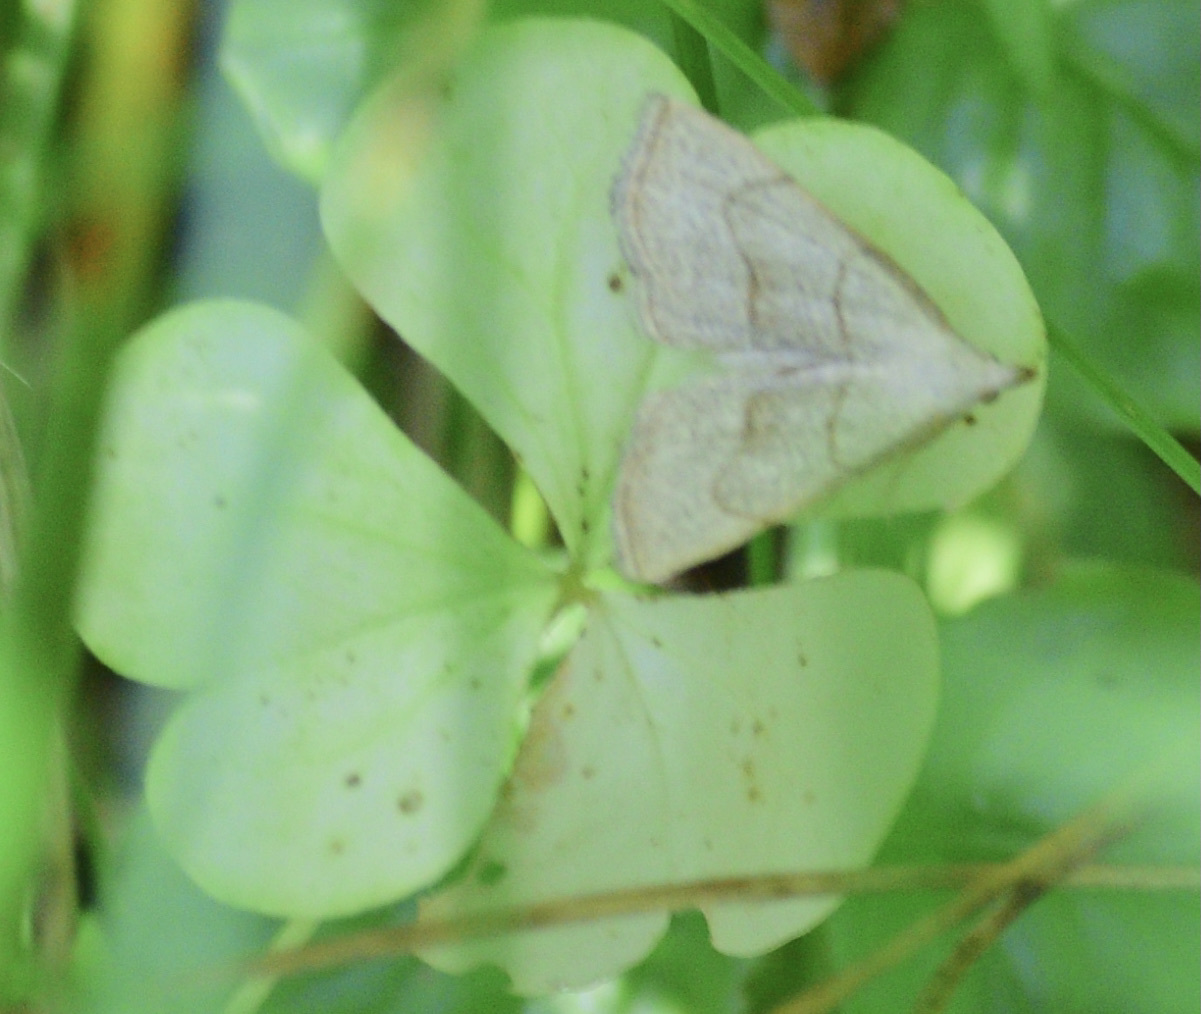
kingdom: Animalia
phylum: Arthropoda
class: Insecta
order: Lepidoptera
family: Erebidae
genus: Macrochilo
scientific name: Macrochilo litophora
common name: Brown-lined owlet
